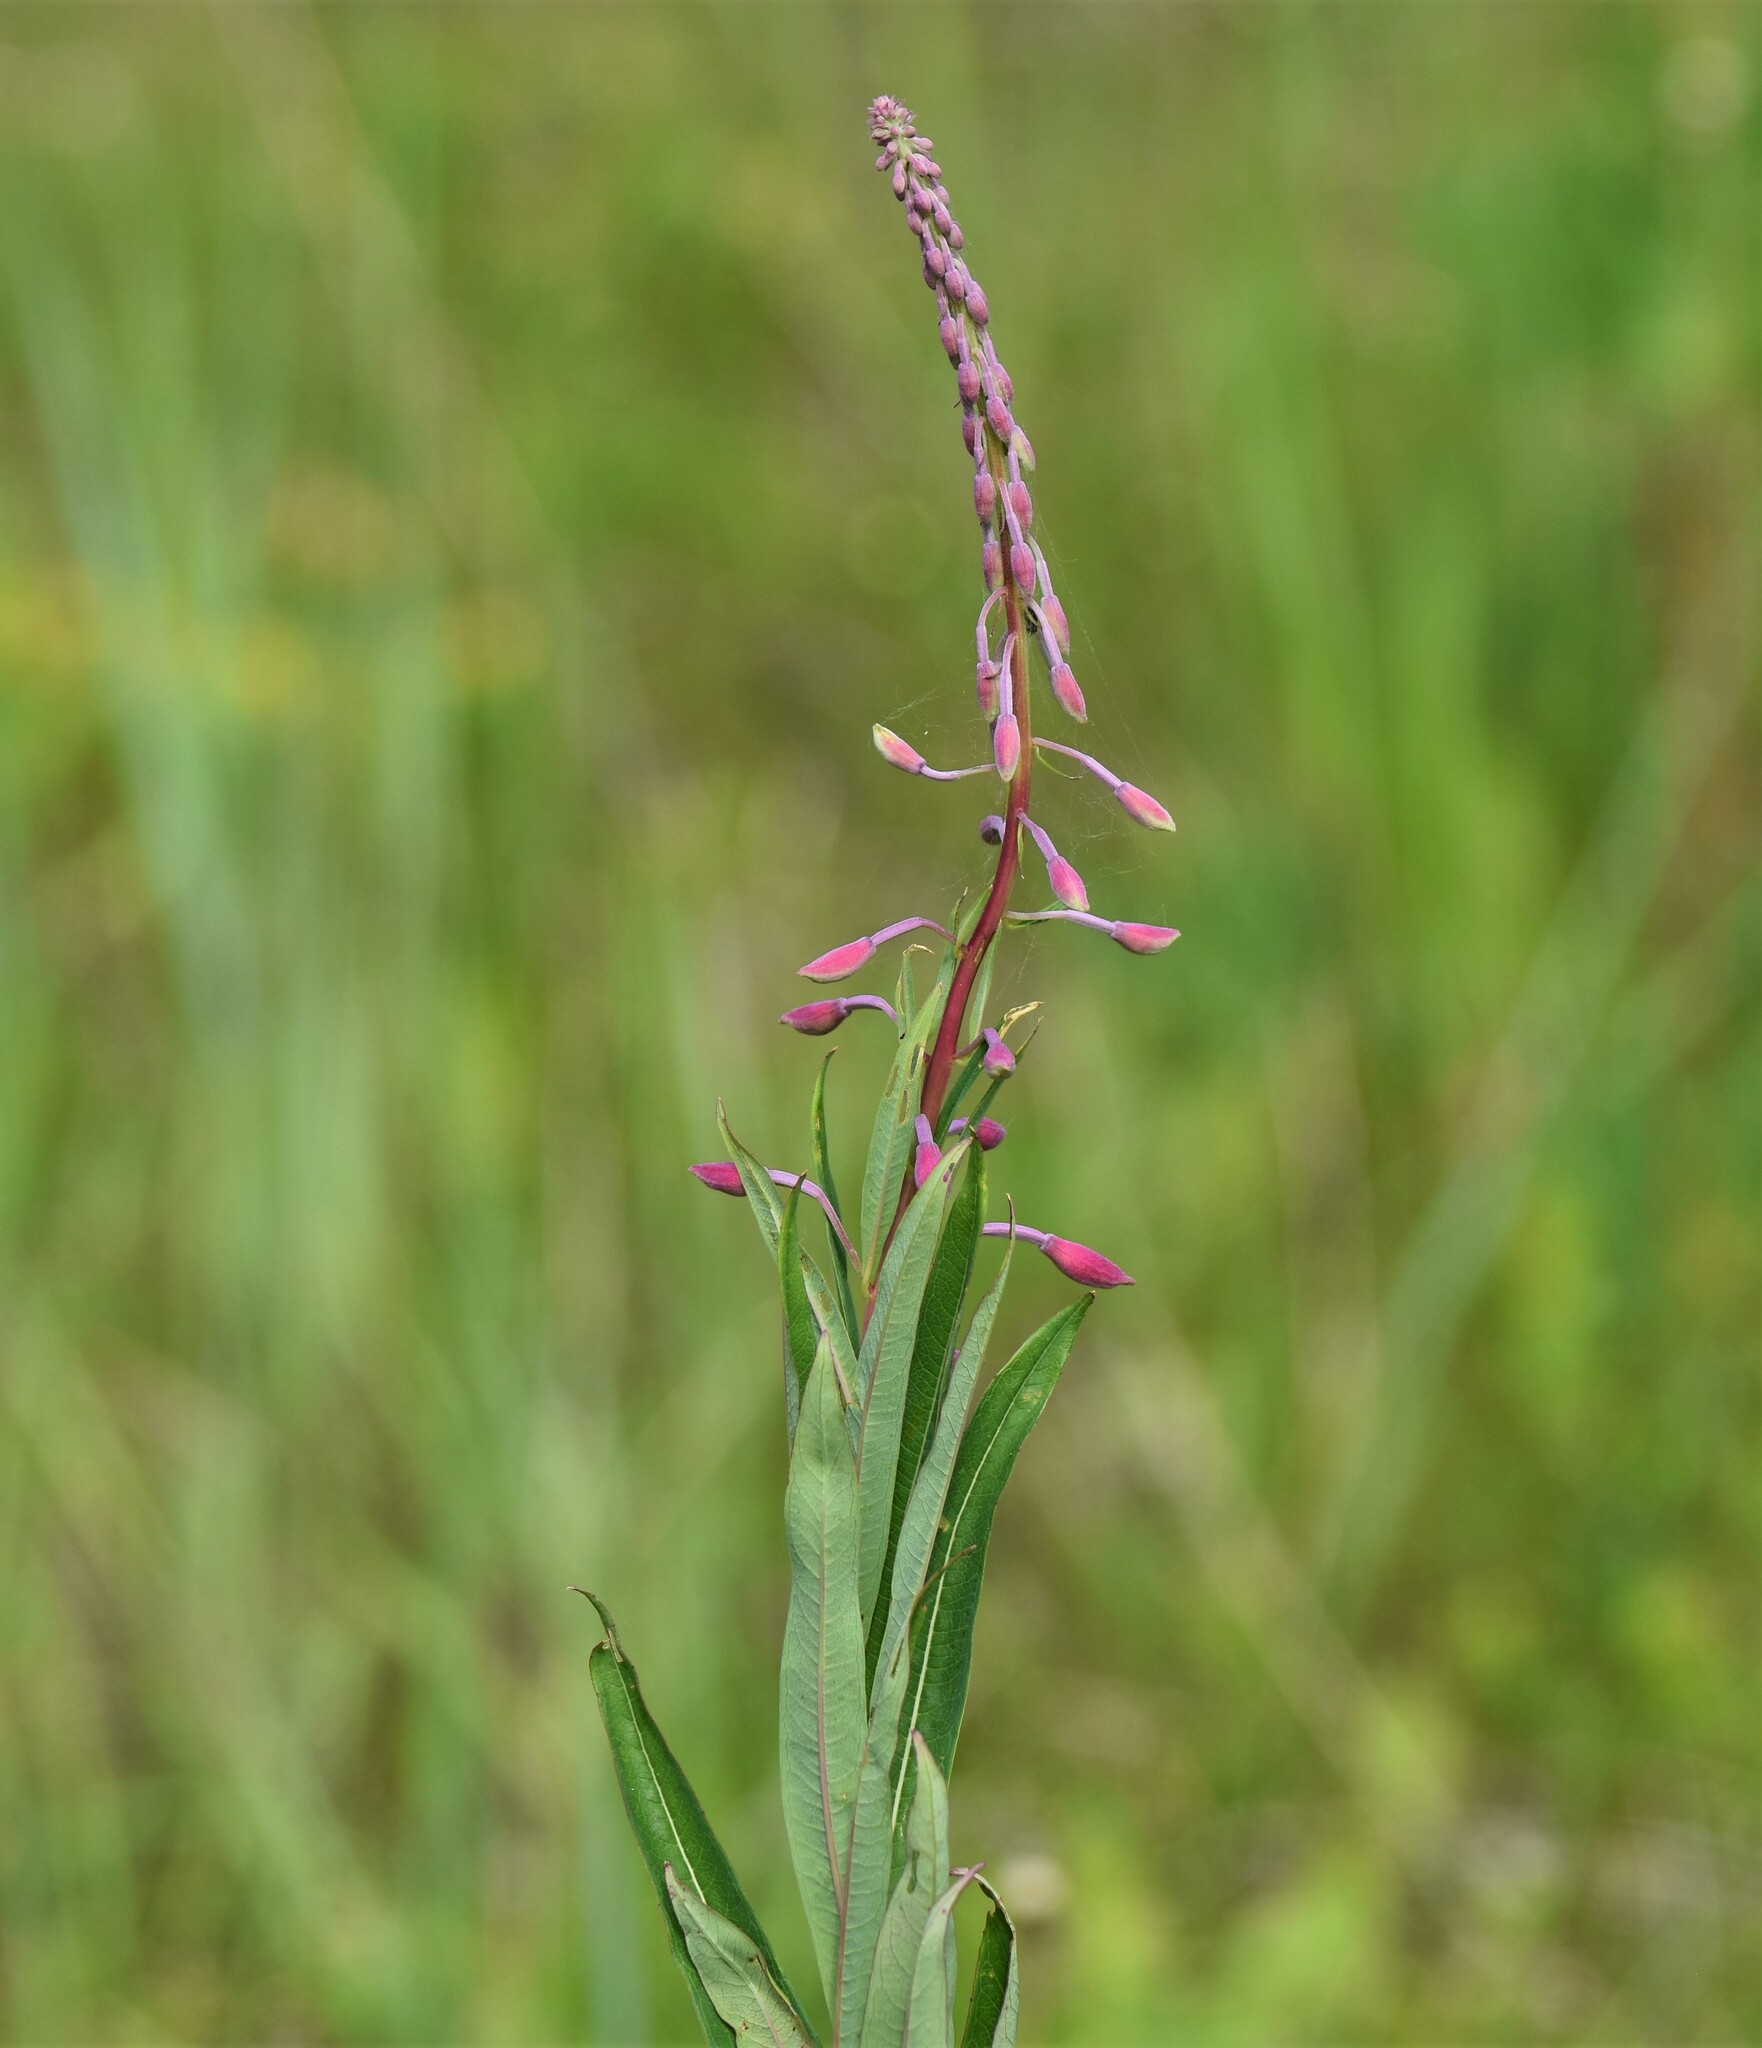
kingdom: Plantae
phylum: Tracheophyta
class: Magnoliopsida
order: Myrtales
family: Onagraceae
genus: Chamaenerion
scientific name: Chamaenerion angustifolium
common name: Fireweed
